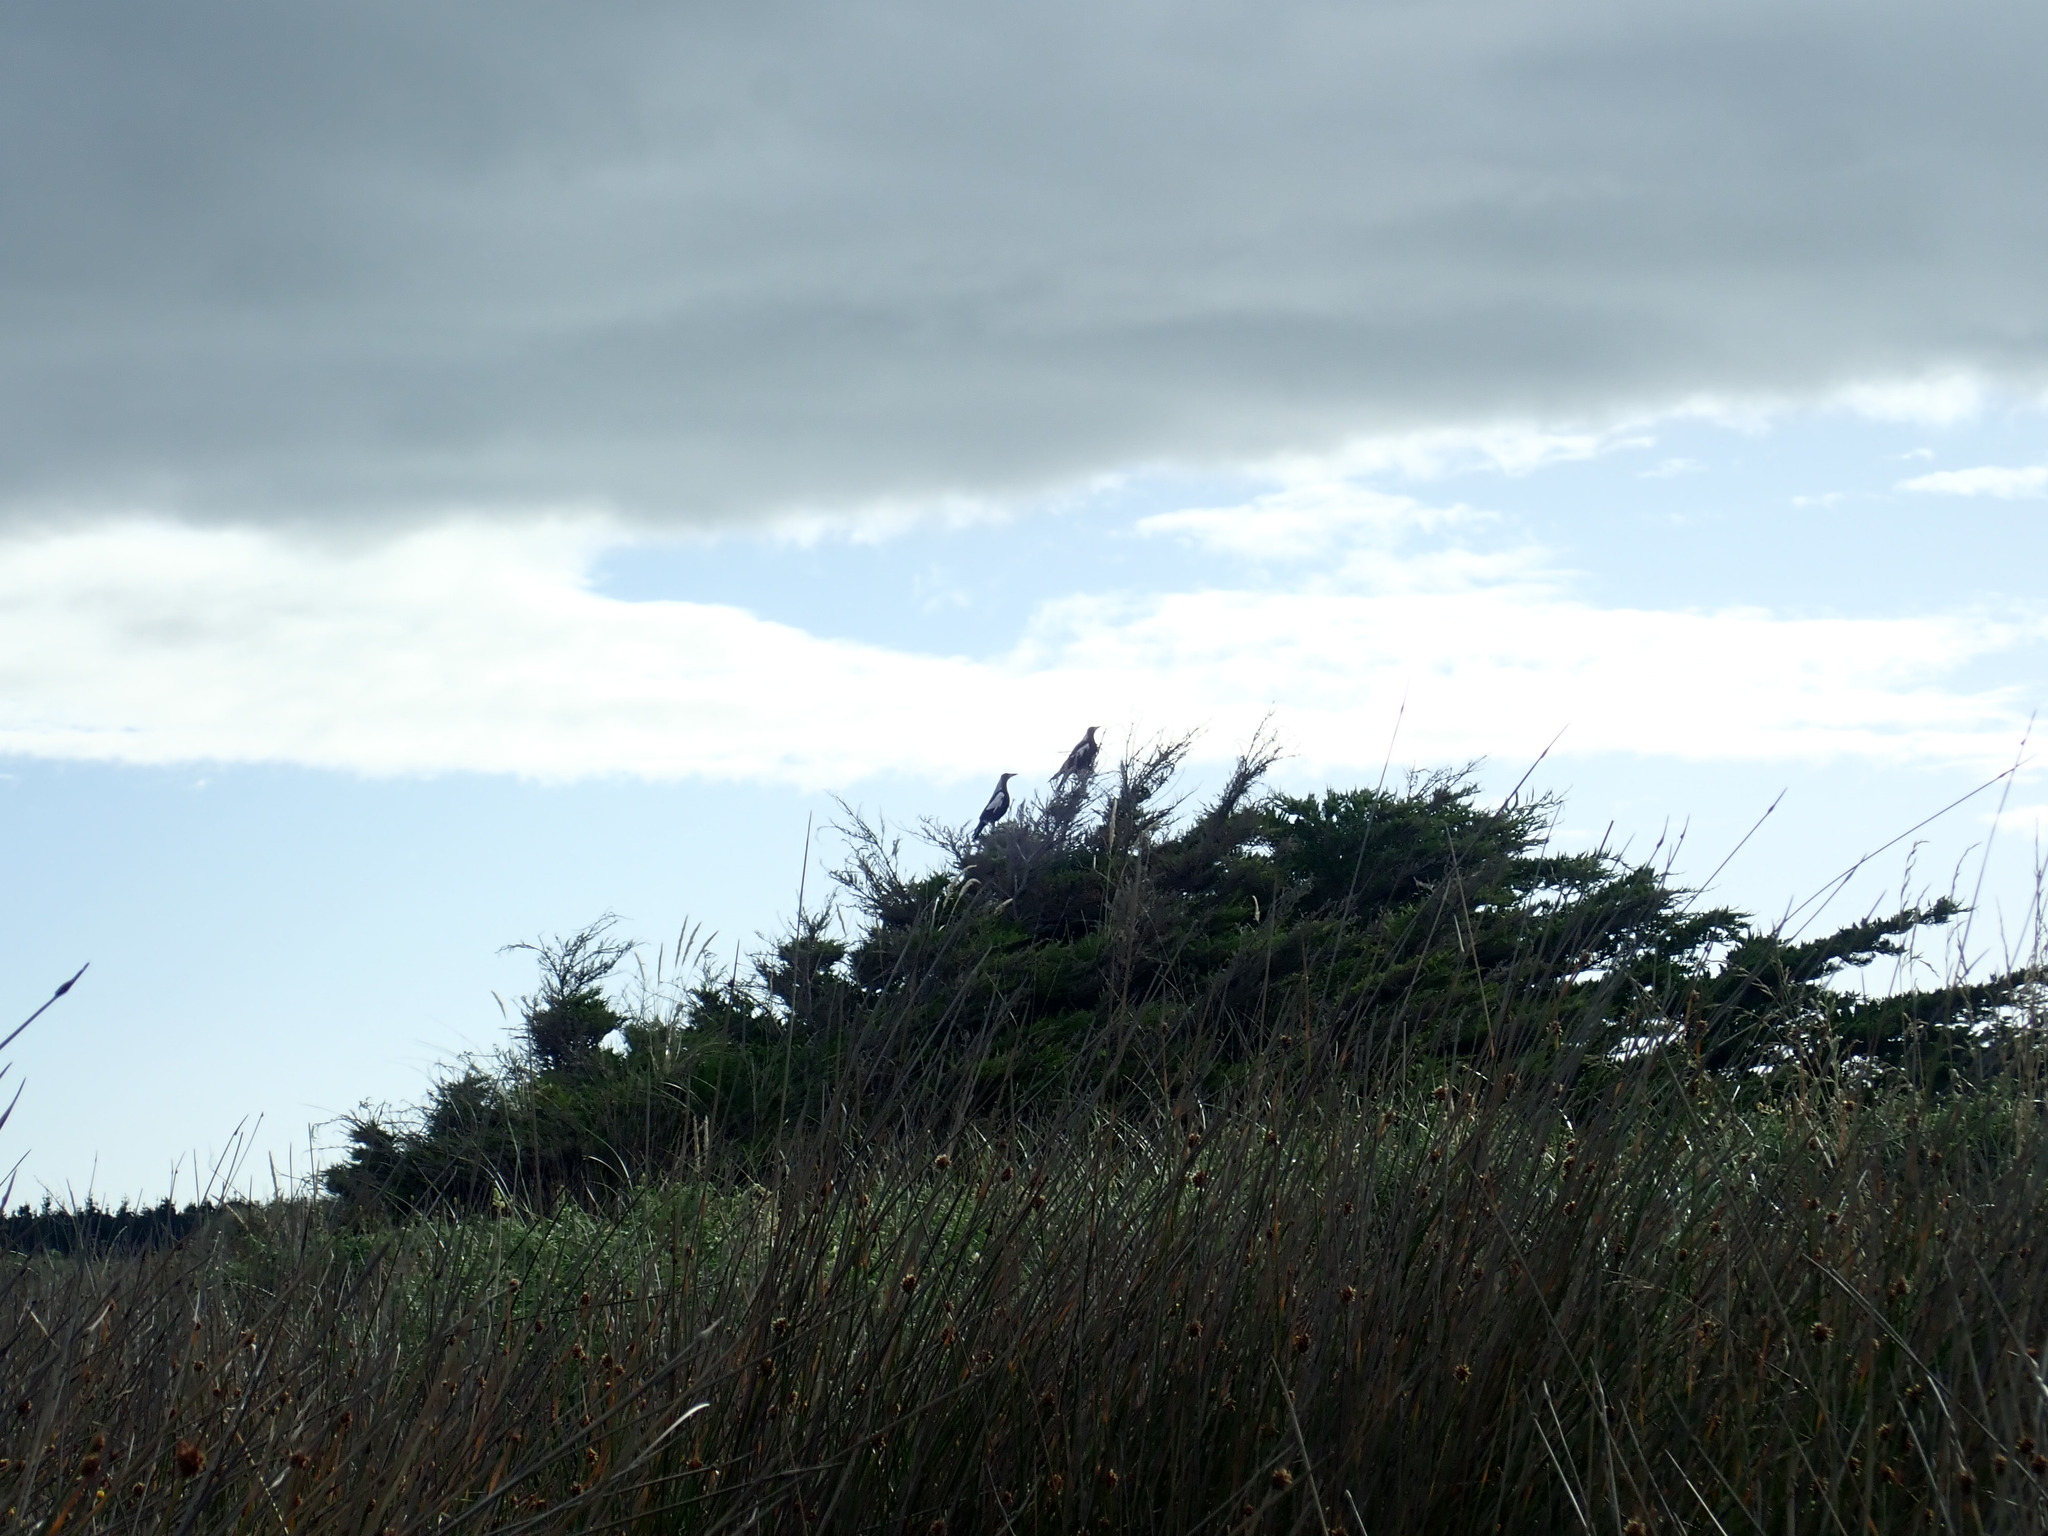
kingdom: Animalia
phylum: Chordata
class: Aves
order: Passeriformes
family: Cracticidae
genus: Gymnorhina
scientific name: Gymnorhina tibicen
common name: Australian magpie
